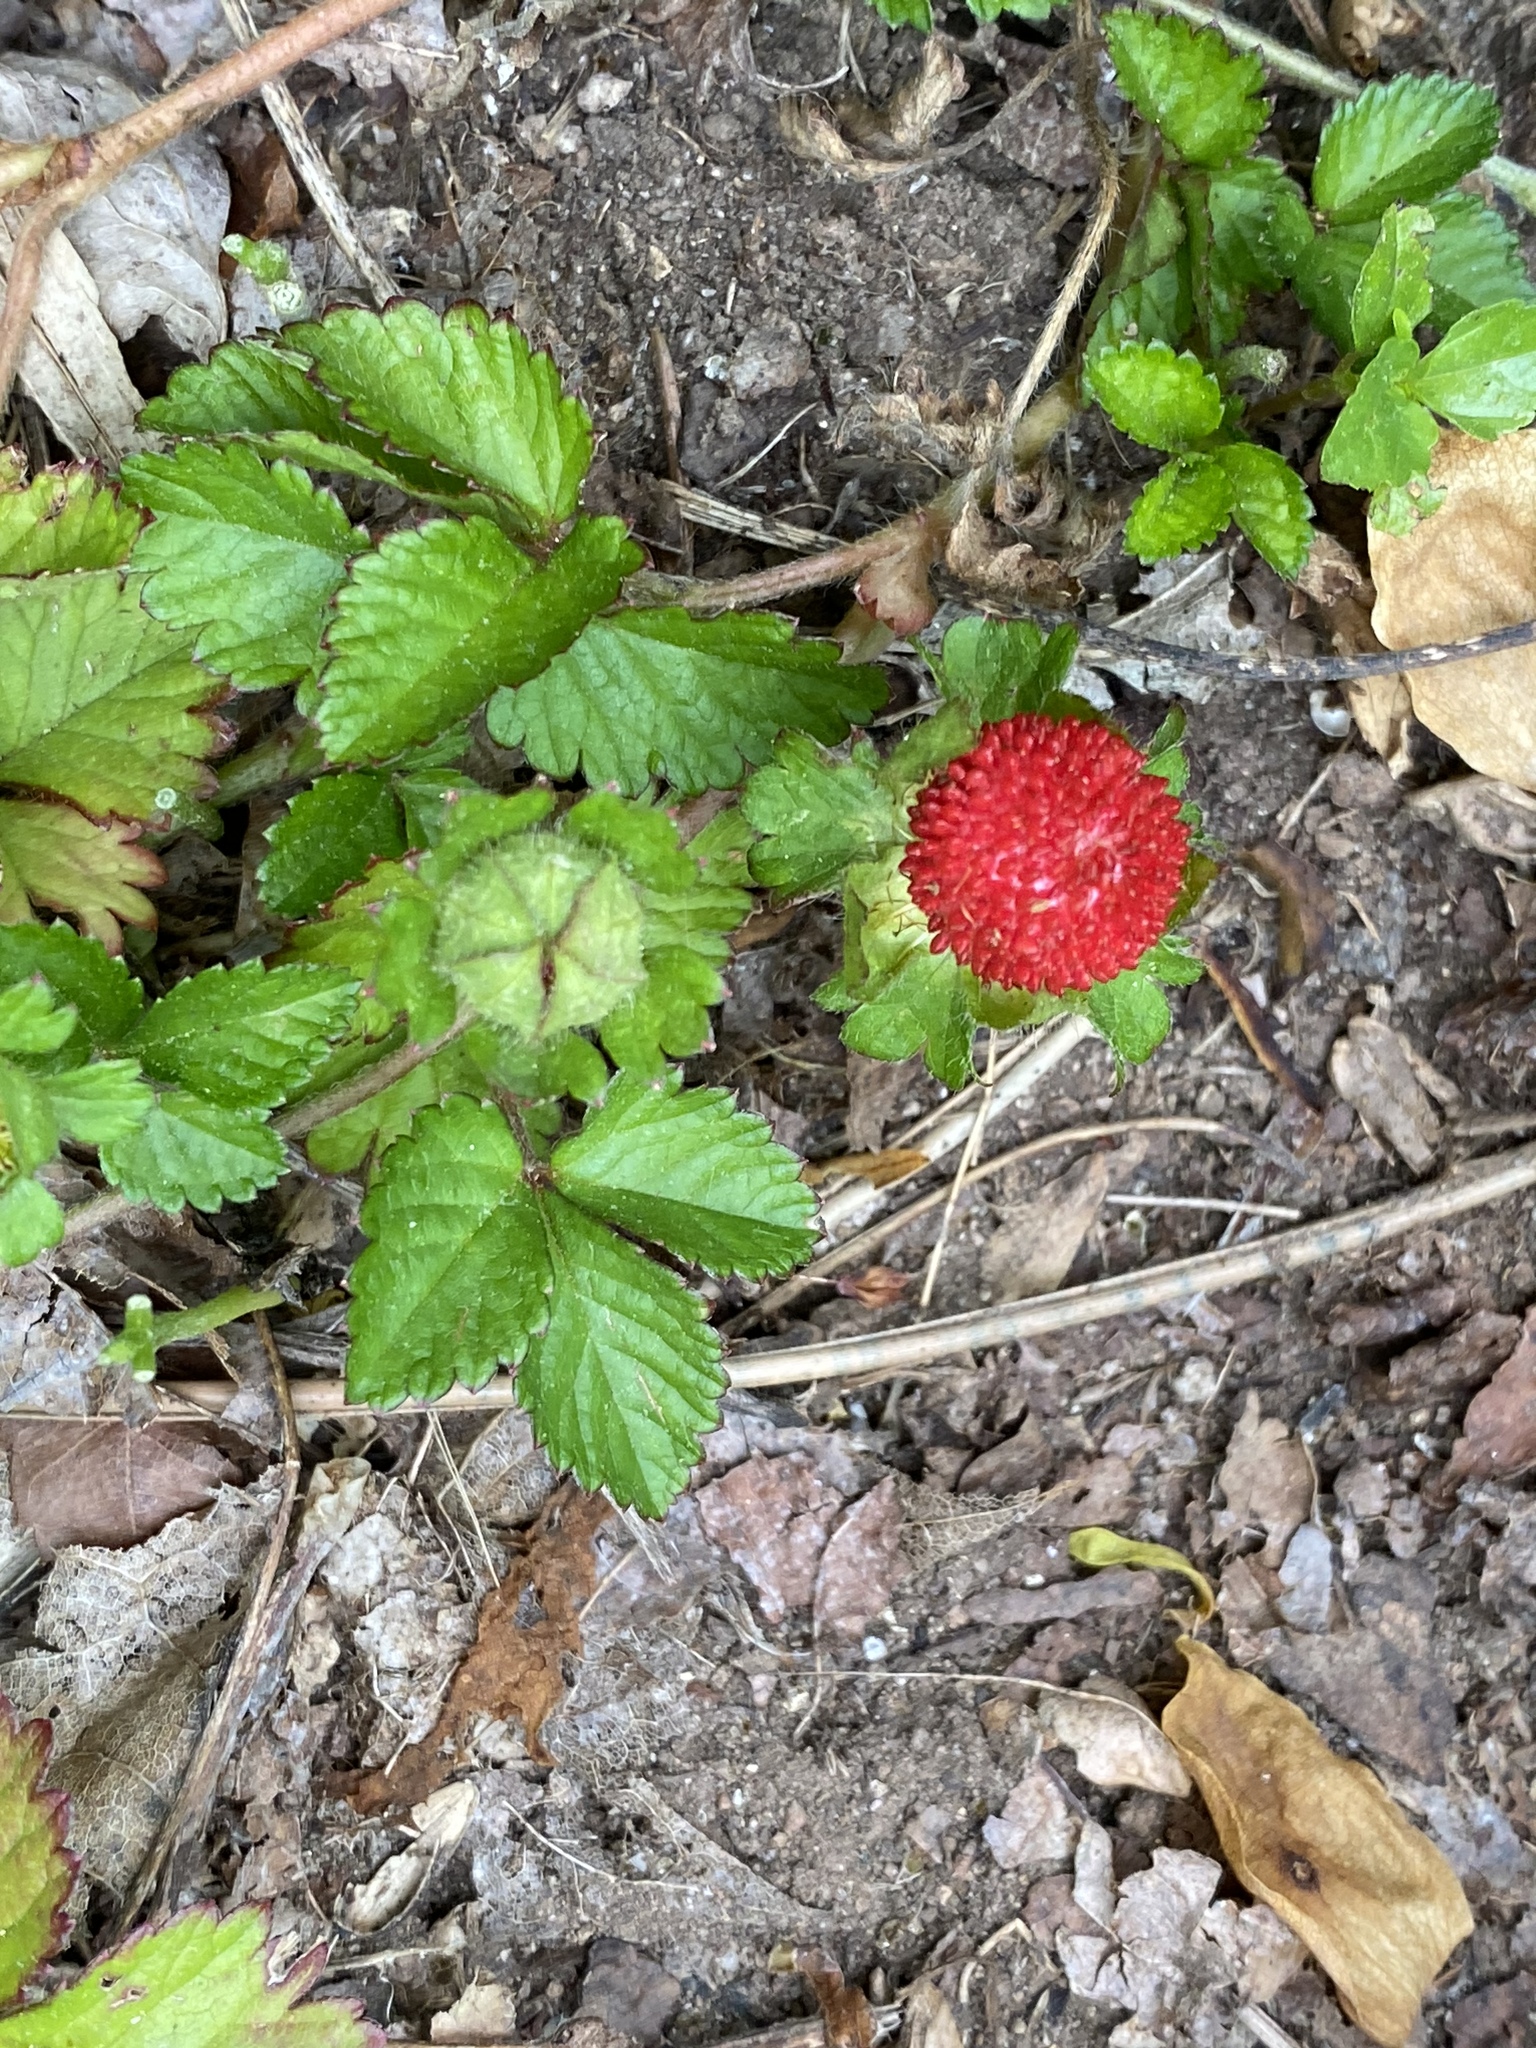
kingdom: Plantae
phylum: Tracheophyta
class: Magnoliopsida
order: Rosales
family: Rosaceae
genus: Potentilla
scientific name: Potentilla indica
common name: Yellow-flowered strawberry
